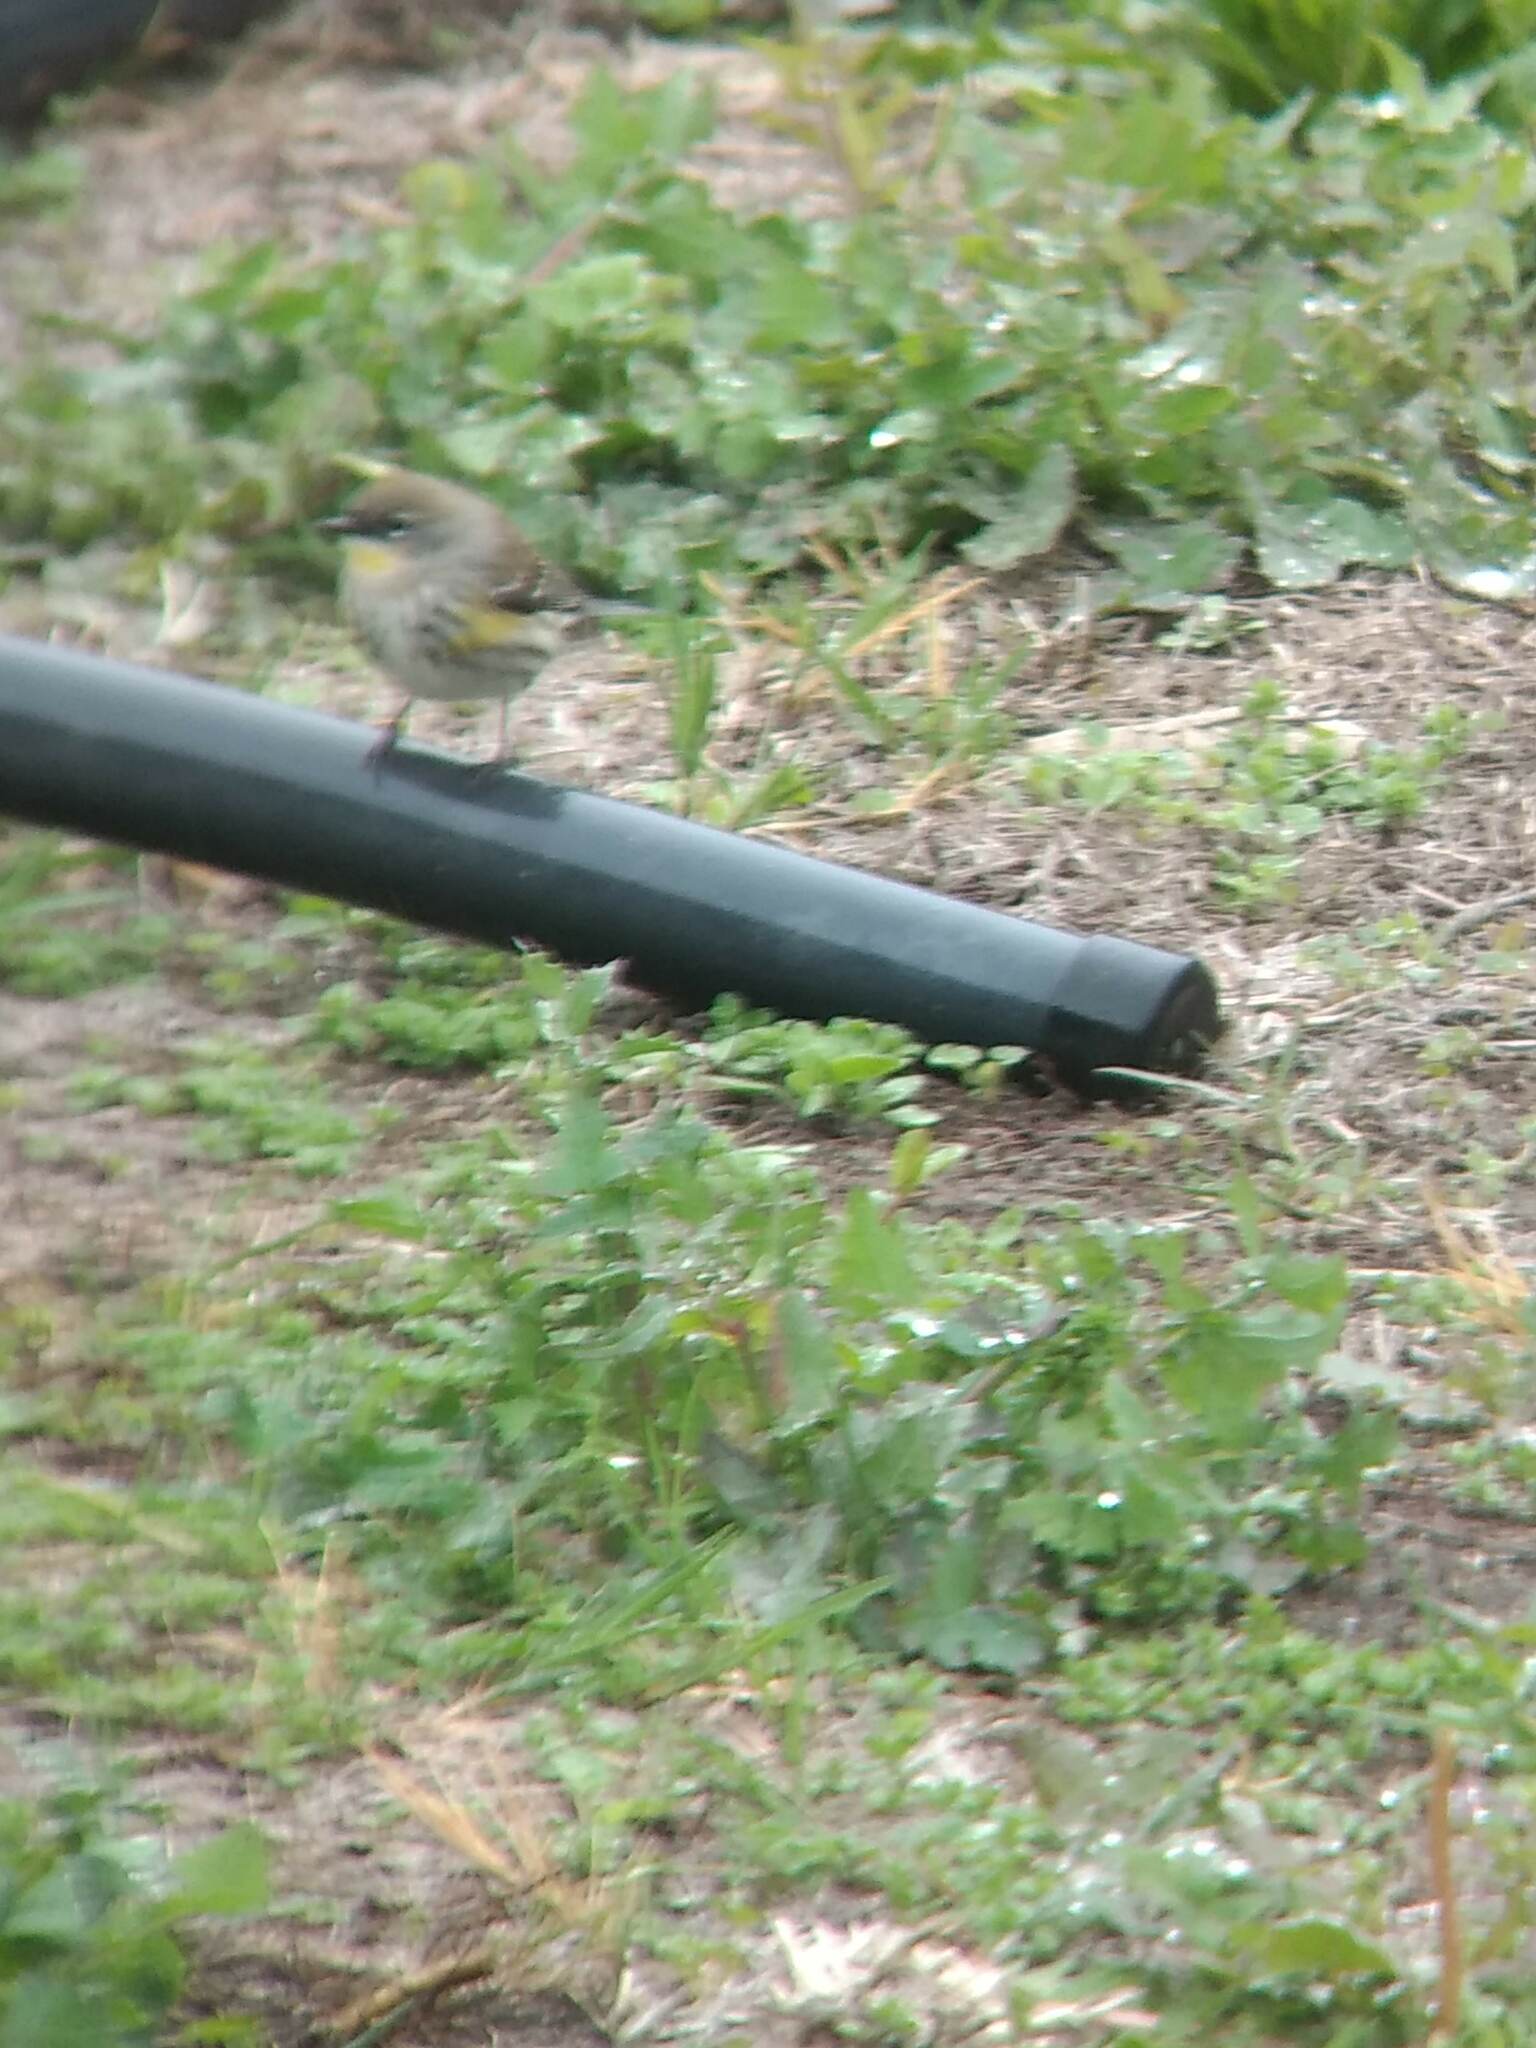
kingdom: Animalia
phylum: Chordata
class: Aves
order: Passeriformes
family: Parulidae
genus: Setophaga
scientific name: Setophaga coronata
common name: Myrtle warbler
